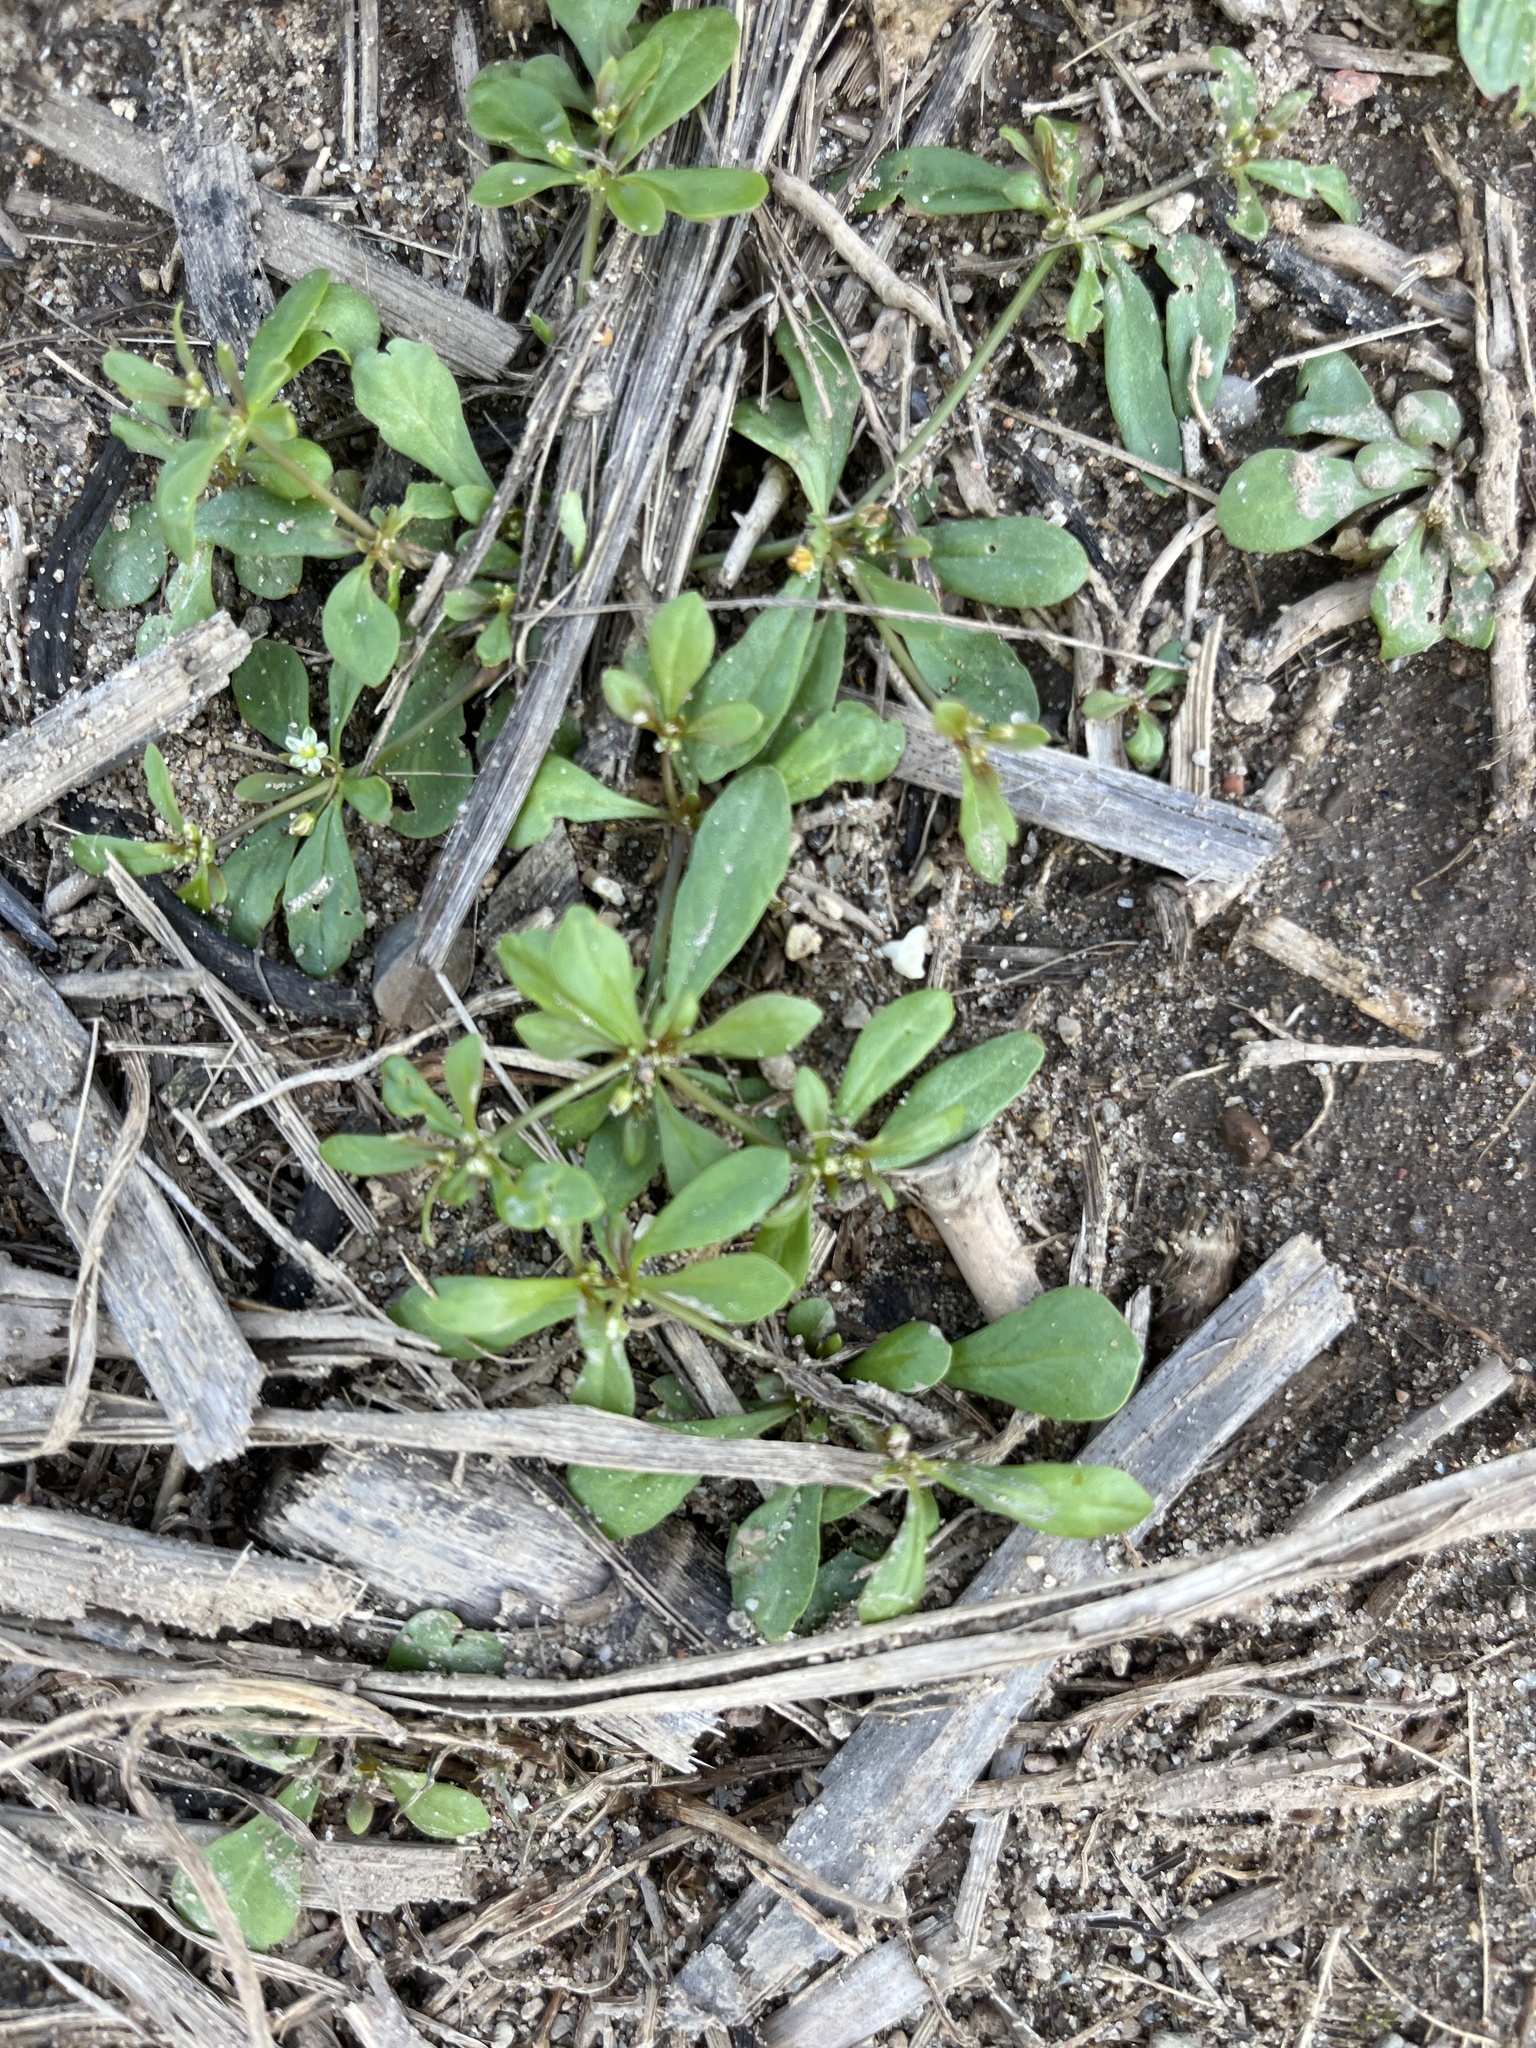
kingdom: Plantae
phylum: Tracheophyta
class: Magnoliopsida
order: Caryophyllales
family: Molluginaceae
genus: Mollugo
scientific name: Mollugo verticillata
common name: Green carpetweed
